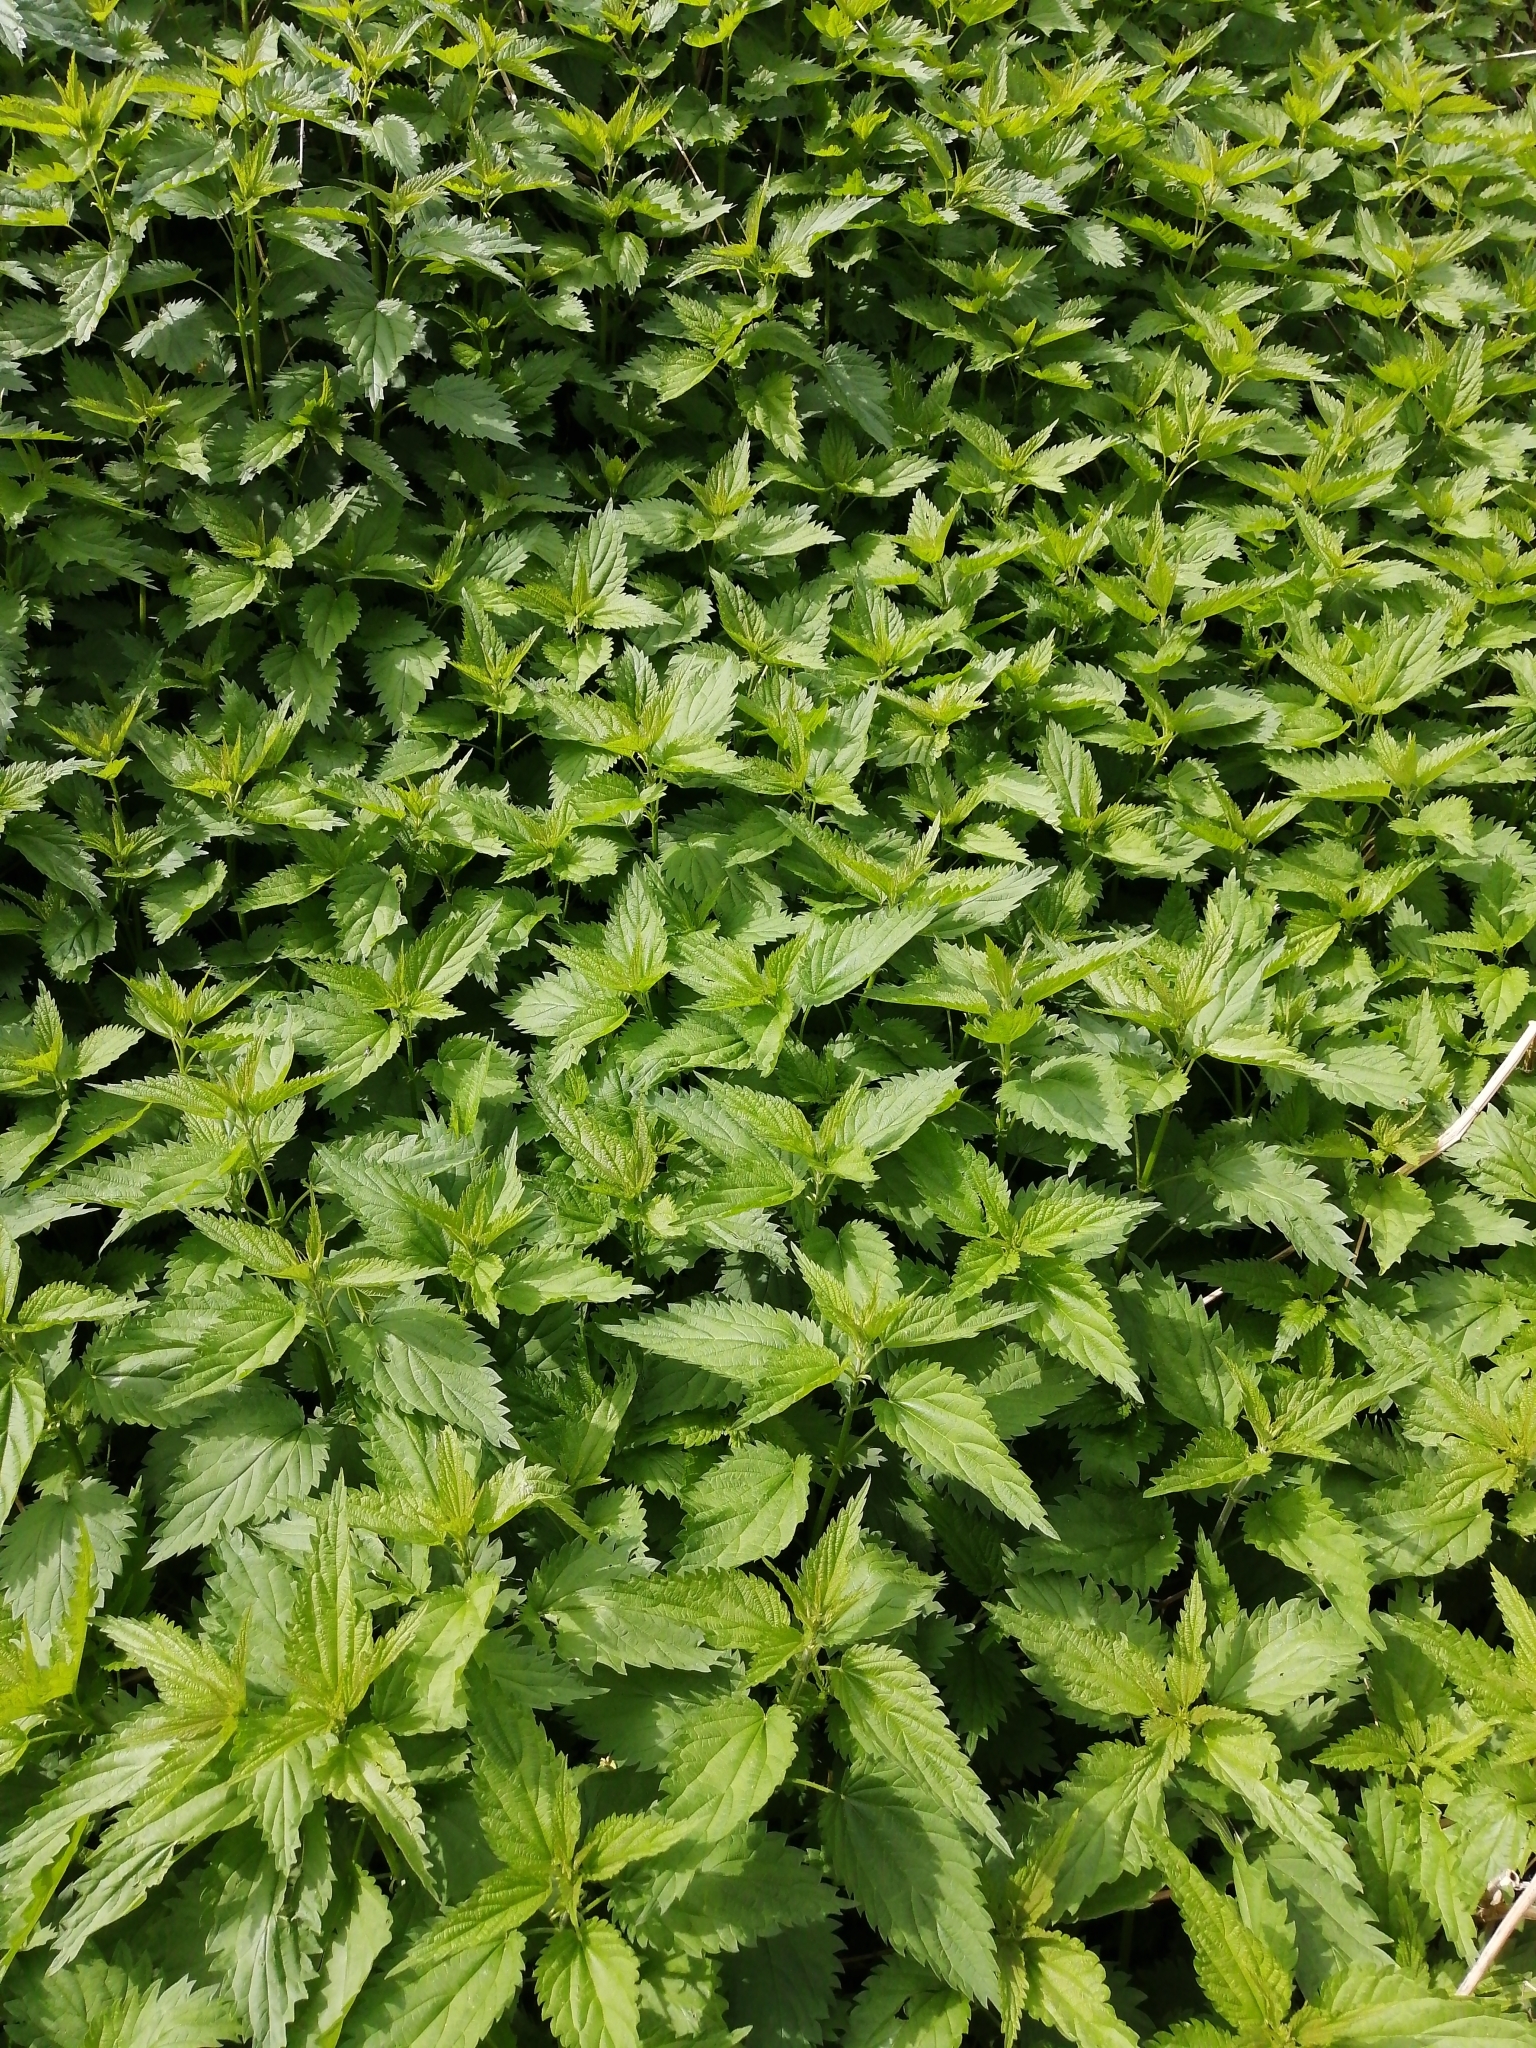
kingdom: Plantae
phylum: Tracheophyta
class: Magnoliopsida
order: Rosales
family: Urticaceae
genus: Urtica
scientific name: Urtica dioica
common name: Common nettle
